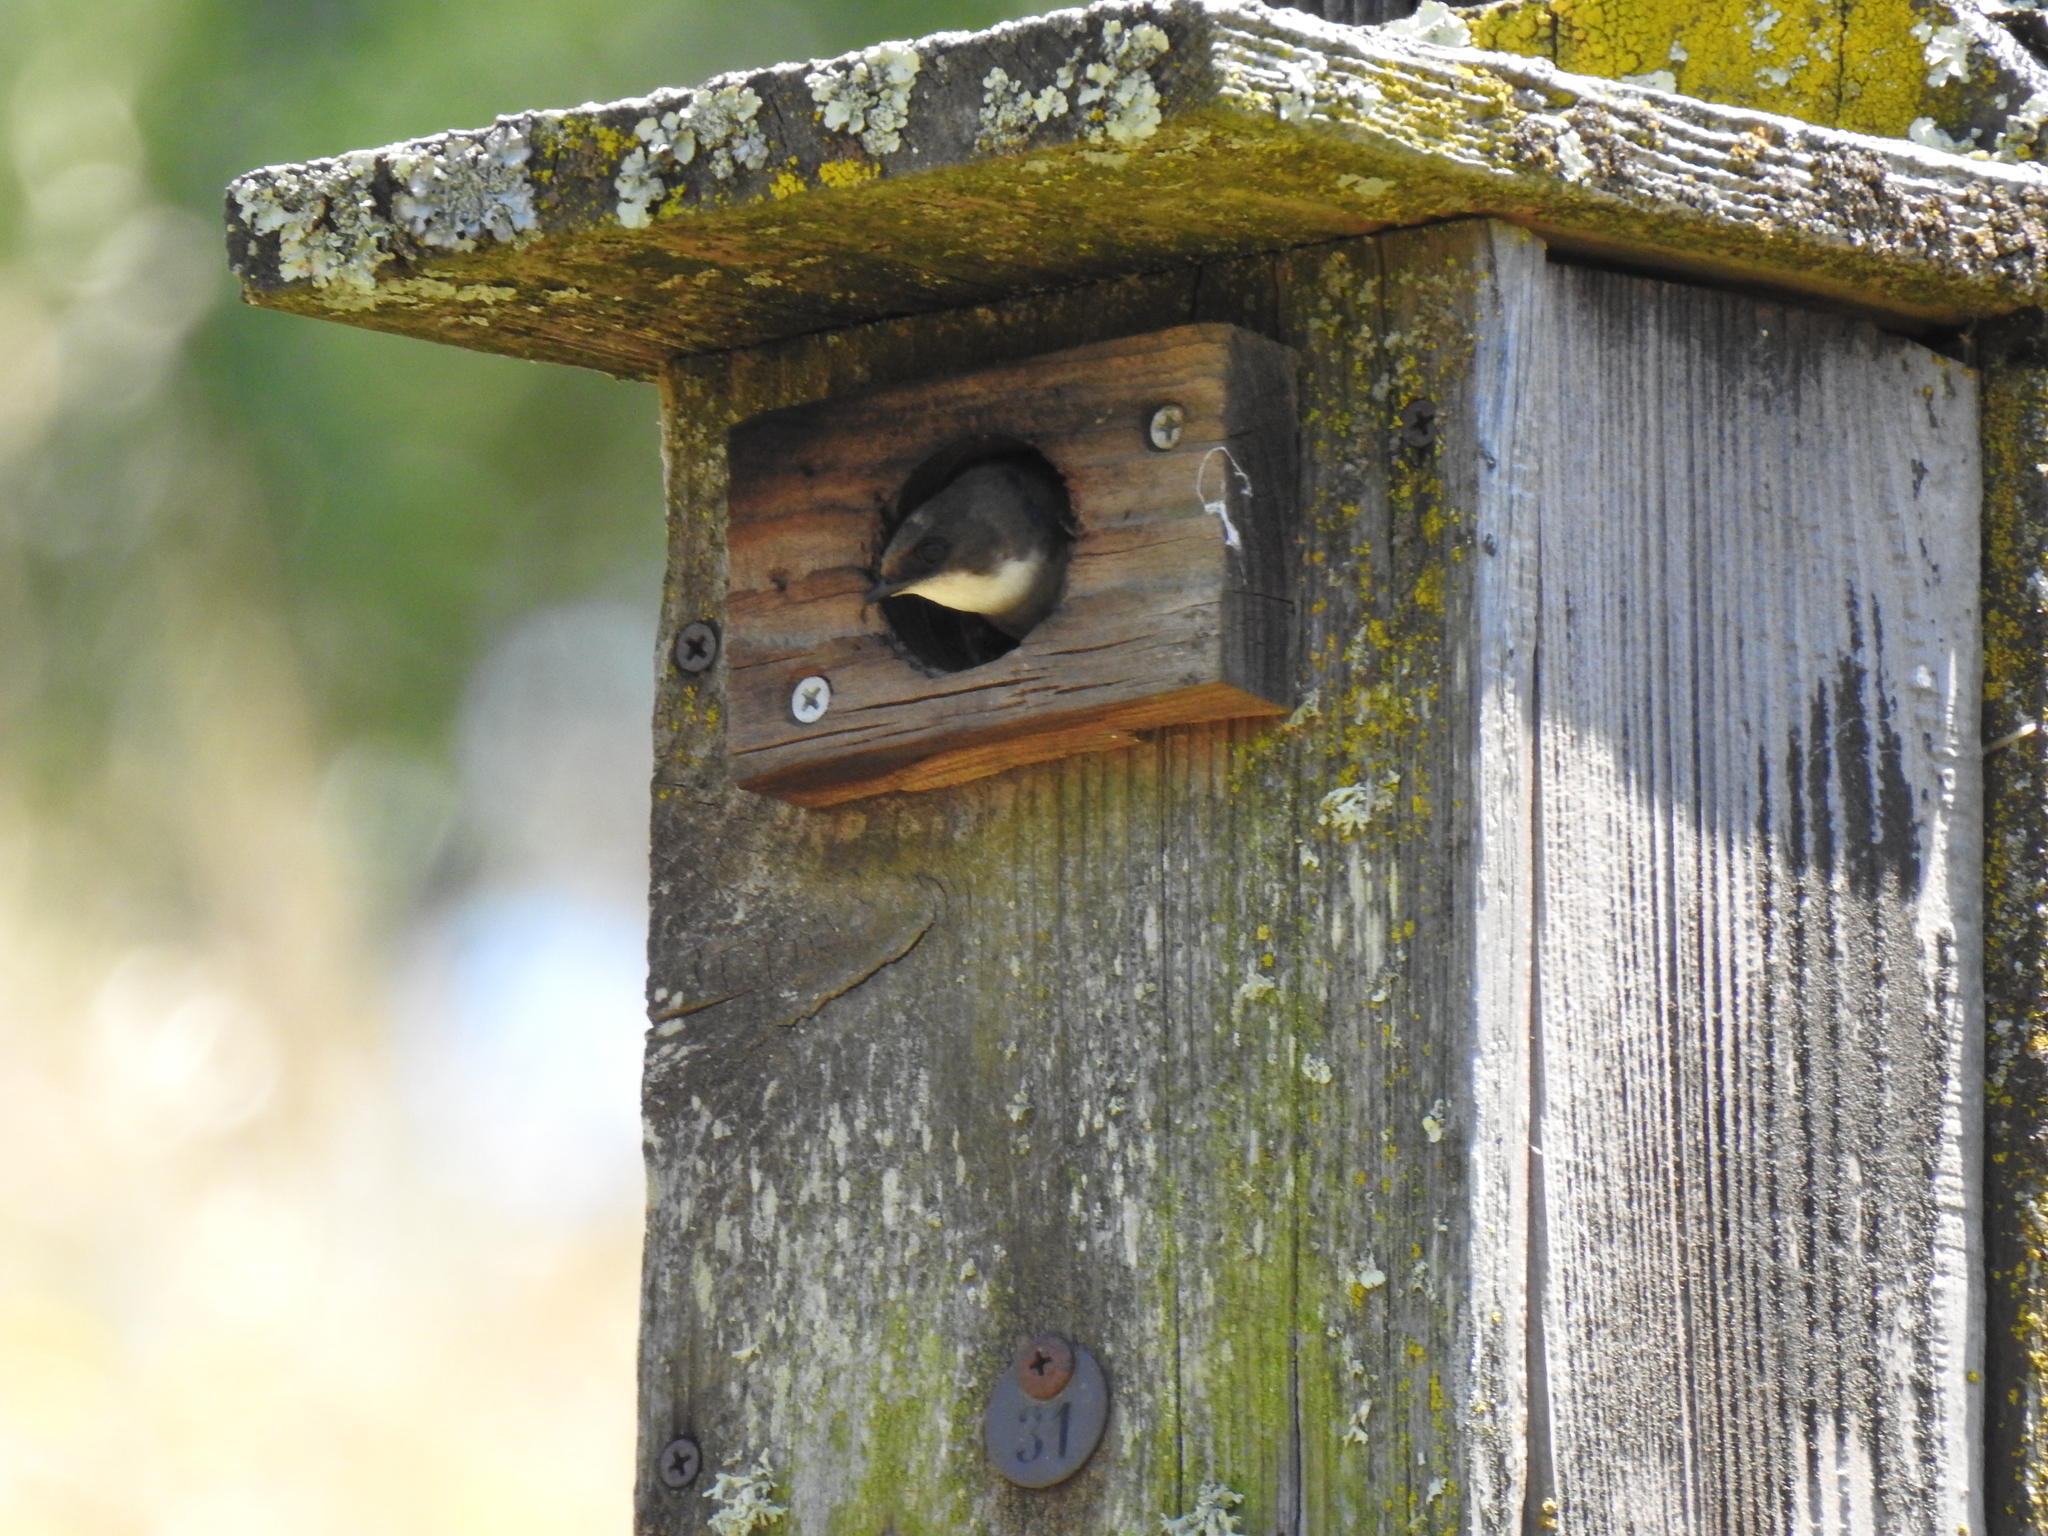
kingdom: Animalia
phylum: Chordata
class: Aves
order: Passeriformes
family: Hirundinidae
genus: Tachycineta
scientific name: Tachycineta bicolor
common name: Tree swallow
